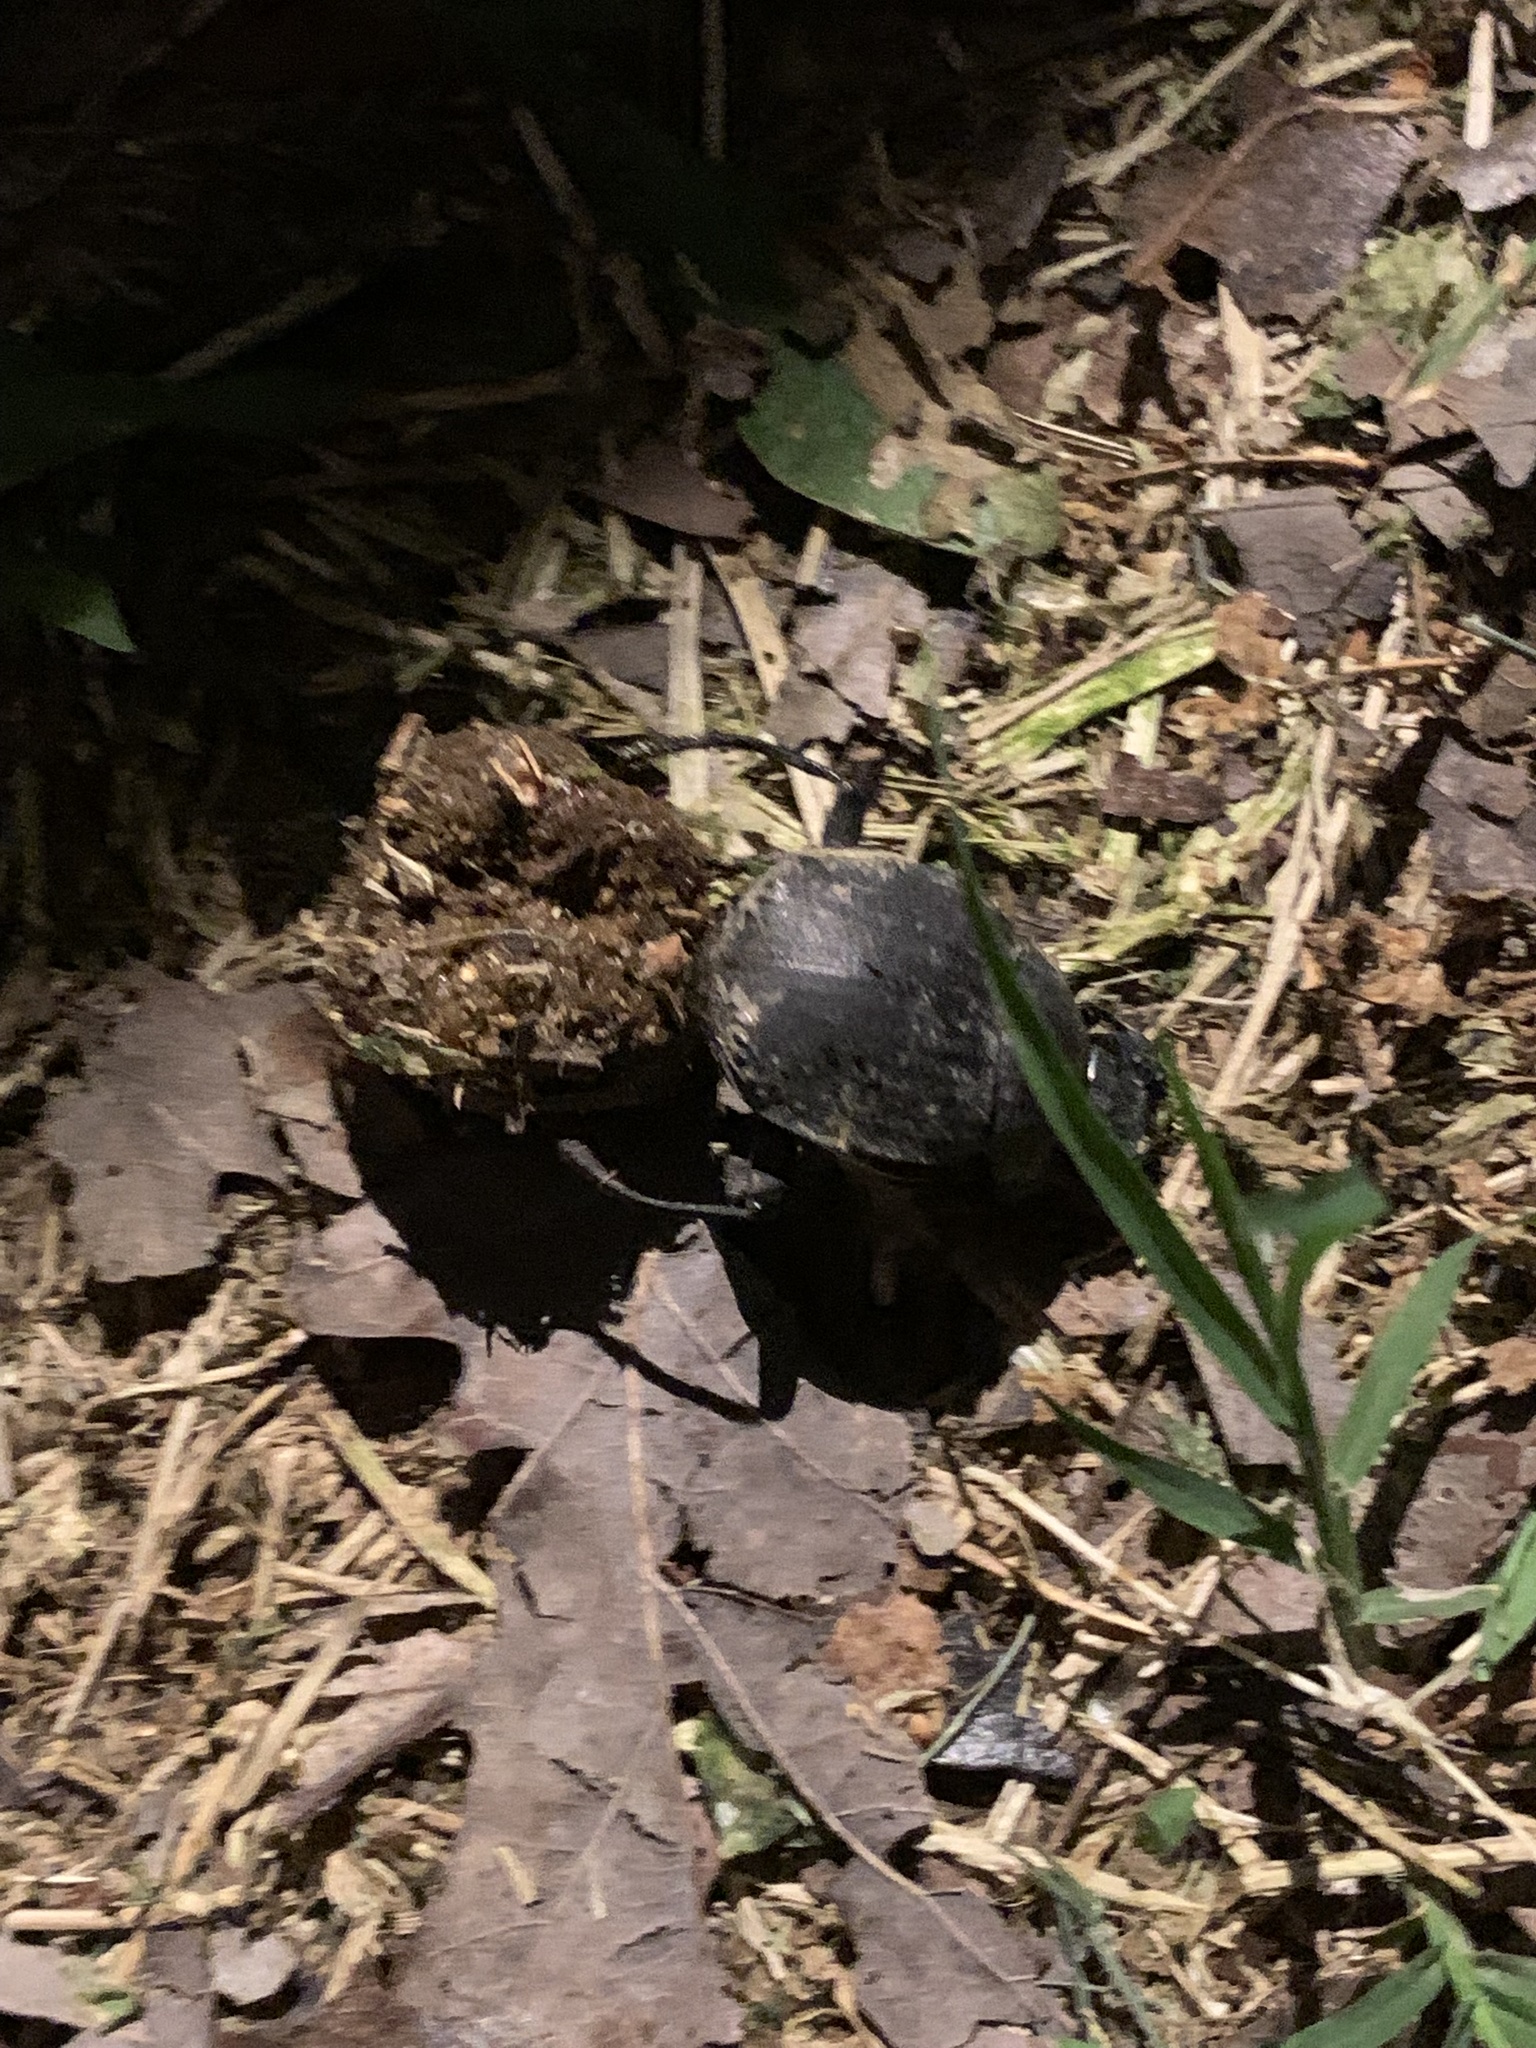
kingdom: Animalia
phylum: Arthropoda
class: Insecta
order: Coleoptera
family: Scarabaeidae
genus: Deltochilum
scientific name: Deltochilum gibbosum
